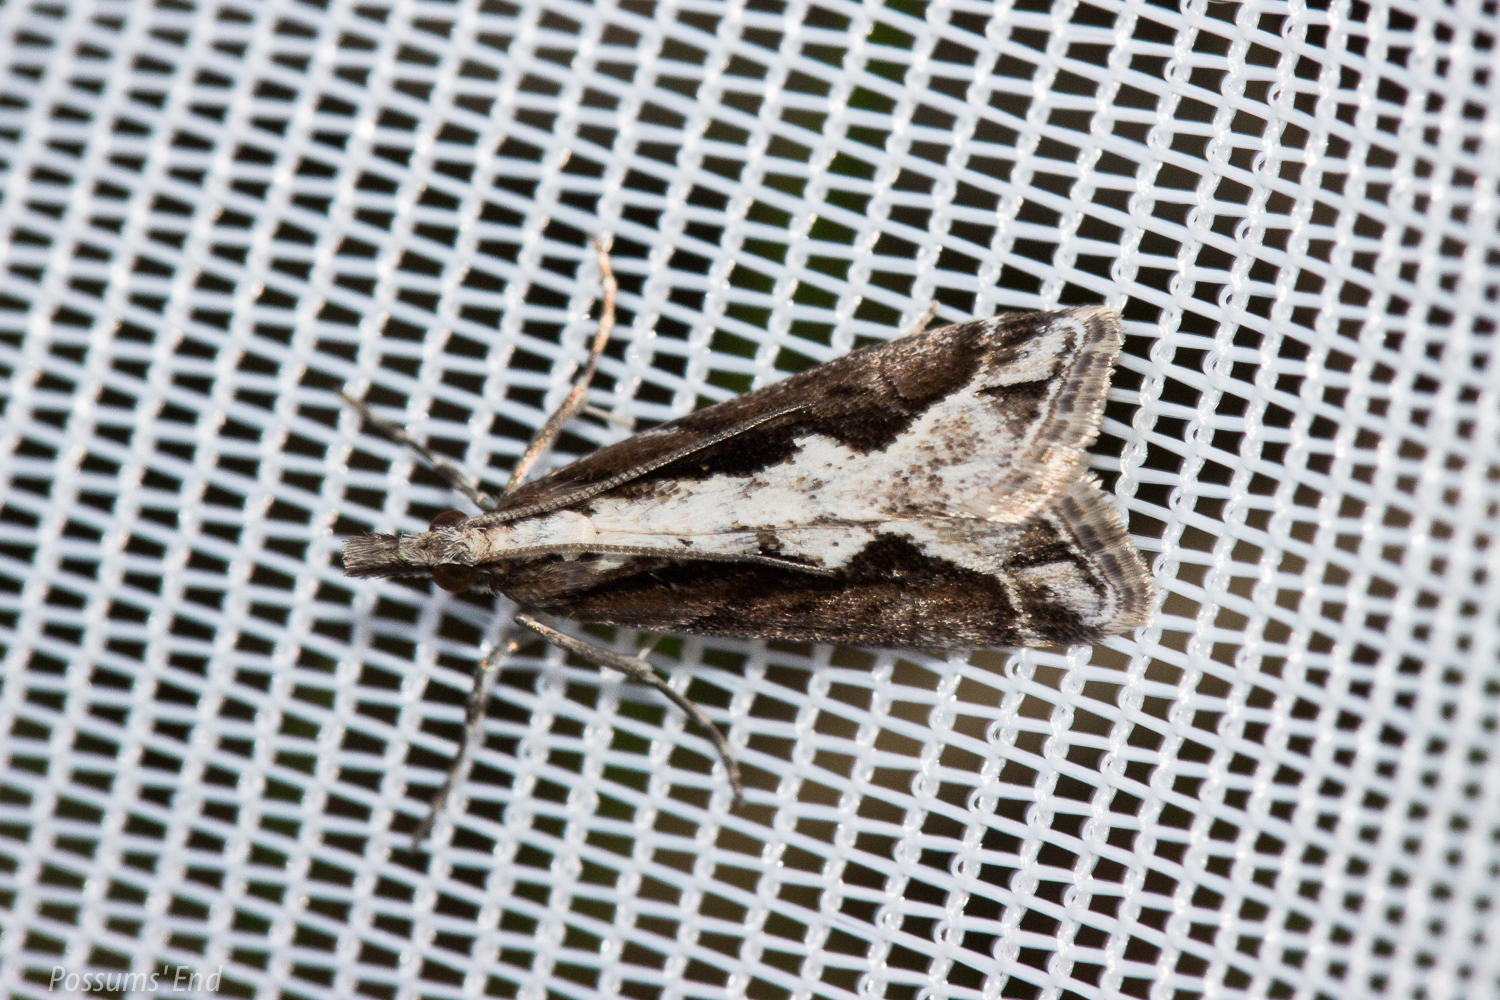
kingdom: Animalia
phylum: Arthropoda
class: Insecta
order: Lepidoptera
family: Crambidae
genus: Eudonia
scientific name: Eudonia steropaea
